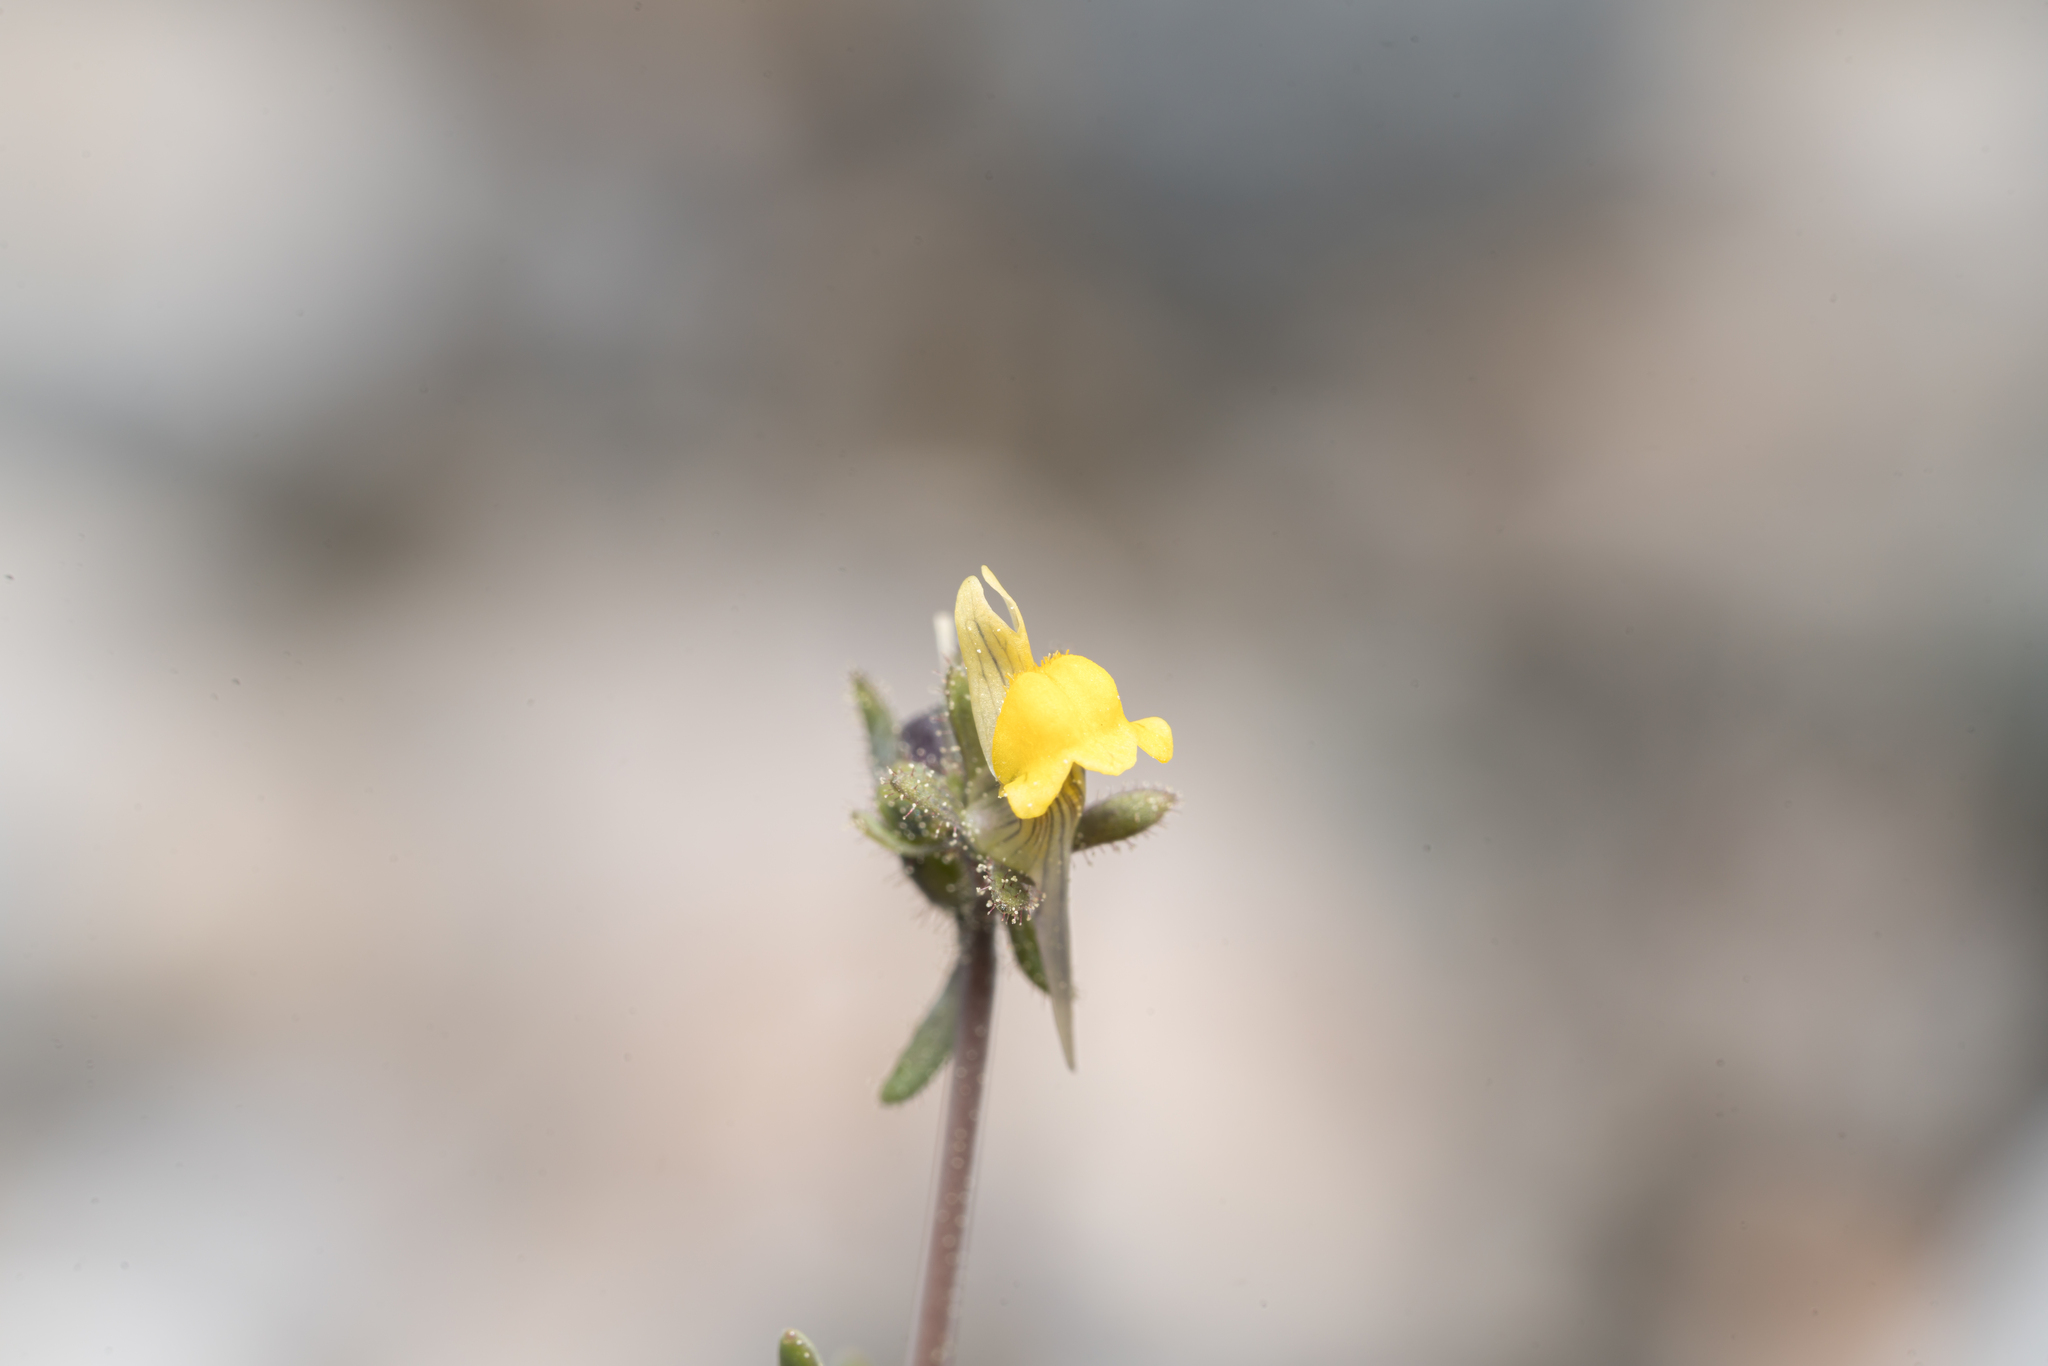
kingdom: Plantae
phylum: Tracheophyta
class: Magnoliopsida
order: Lamiales
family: Plantaginaceae
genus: Linaria
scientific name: Linaria simplex
